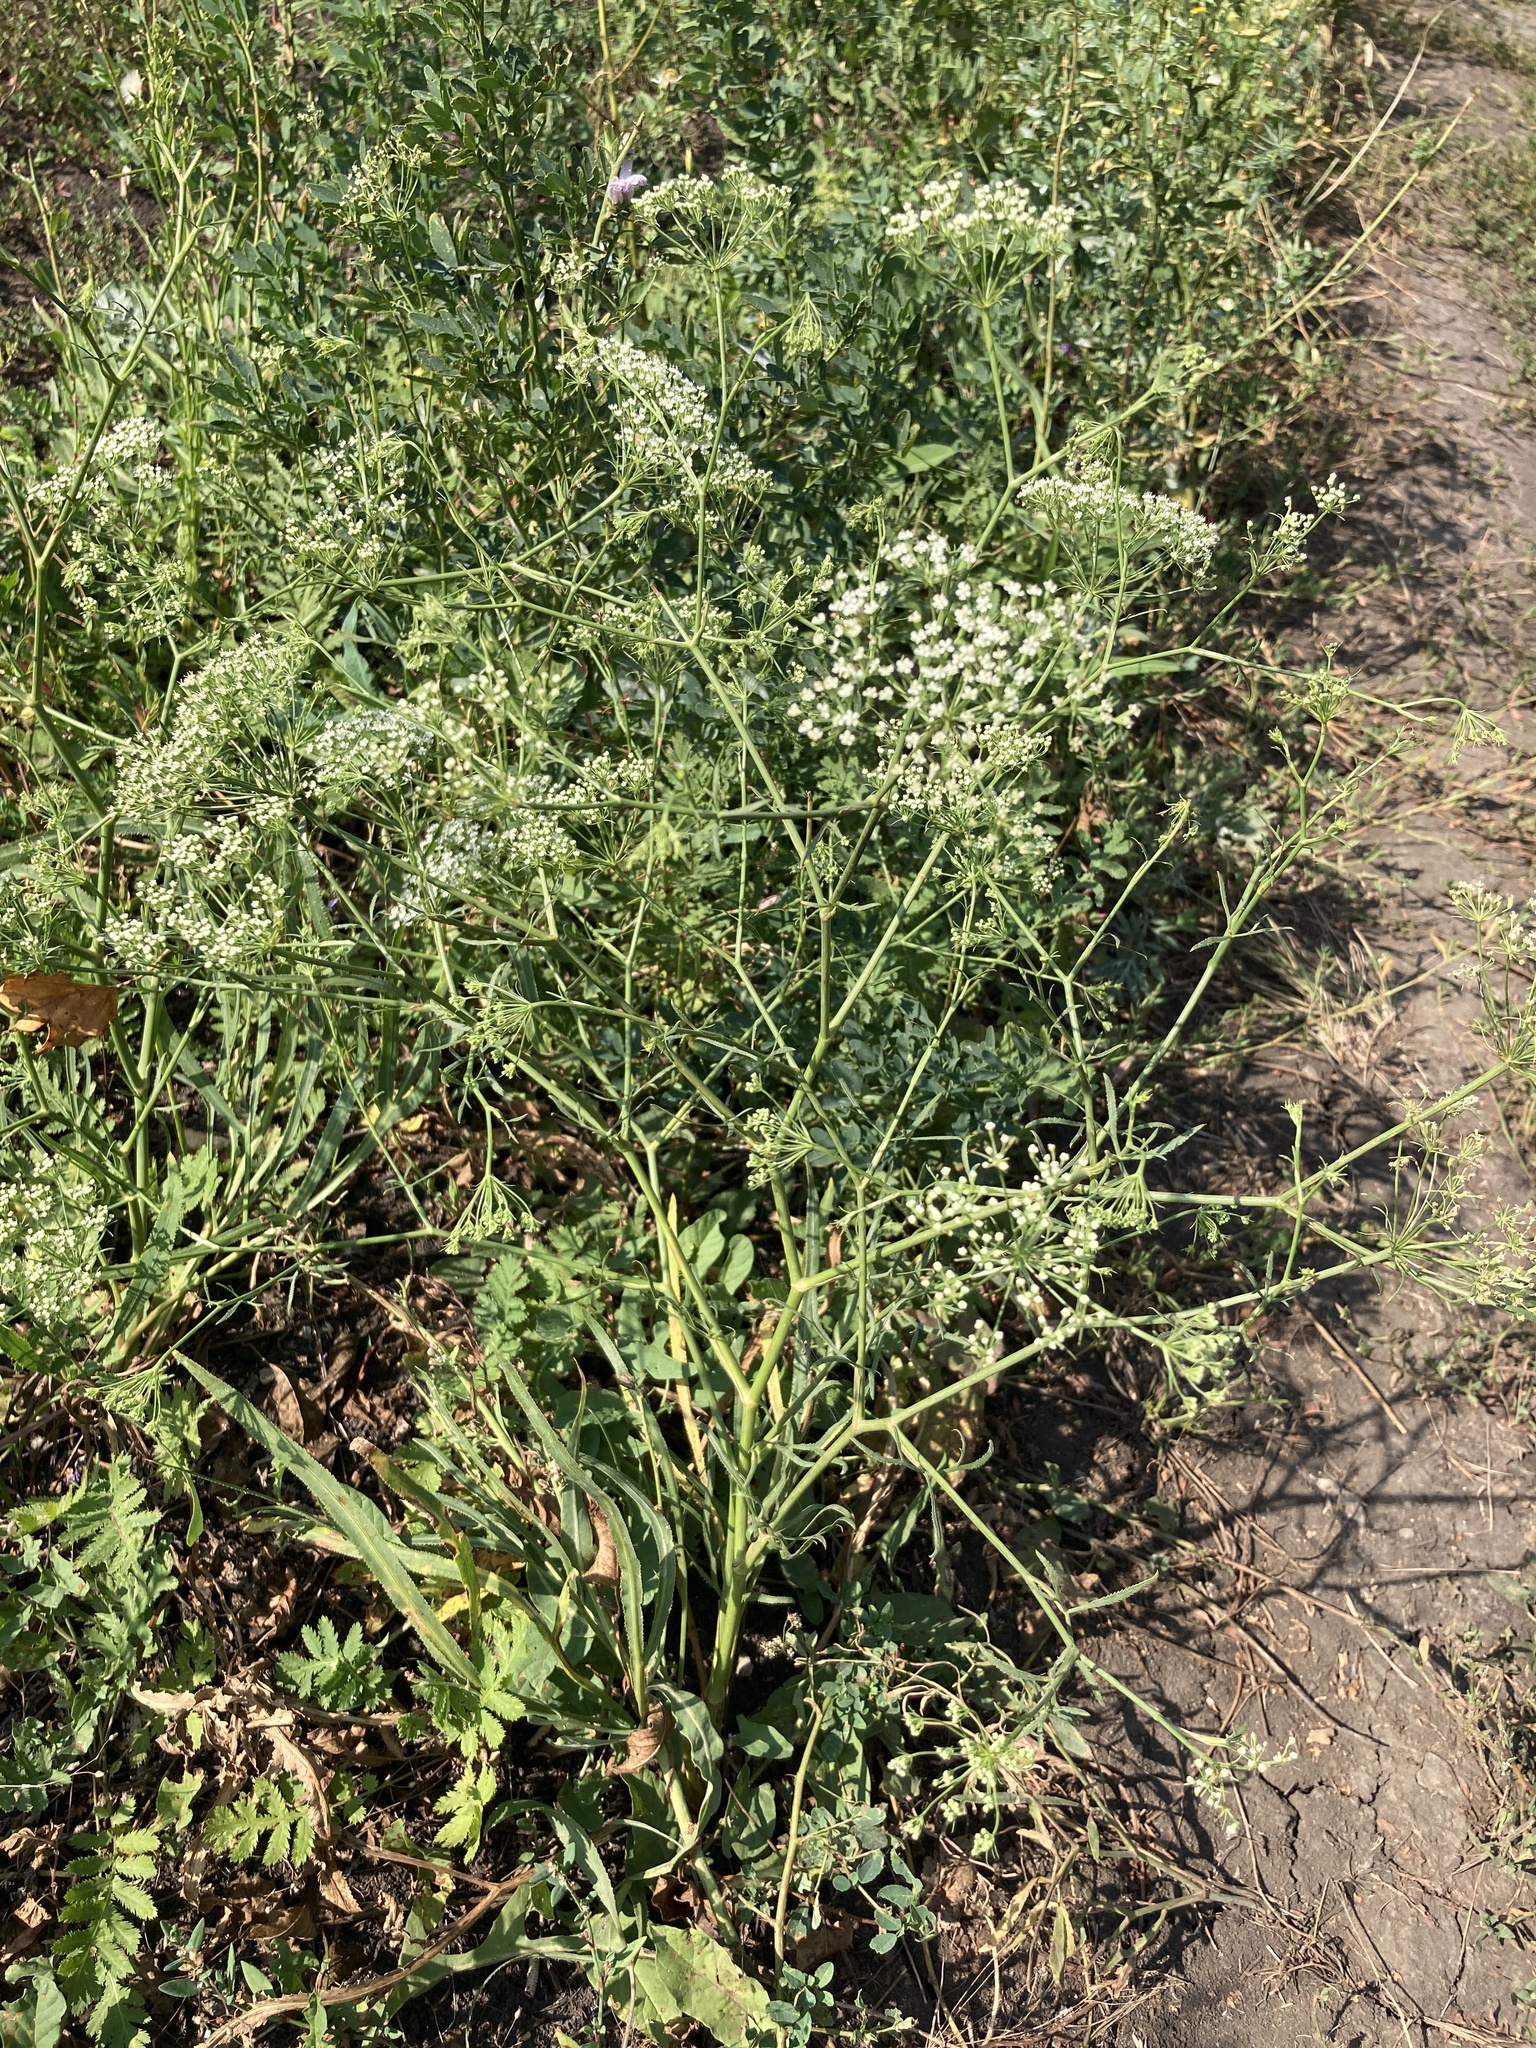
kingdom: Plantae
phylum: Tracheophyta
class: Magnoliopsida
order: Apiales
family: Apiaceae
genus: Falcaria
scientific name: Falcaria vulgaris
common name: Longleaf
